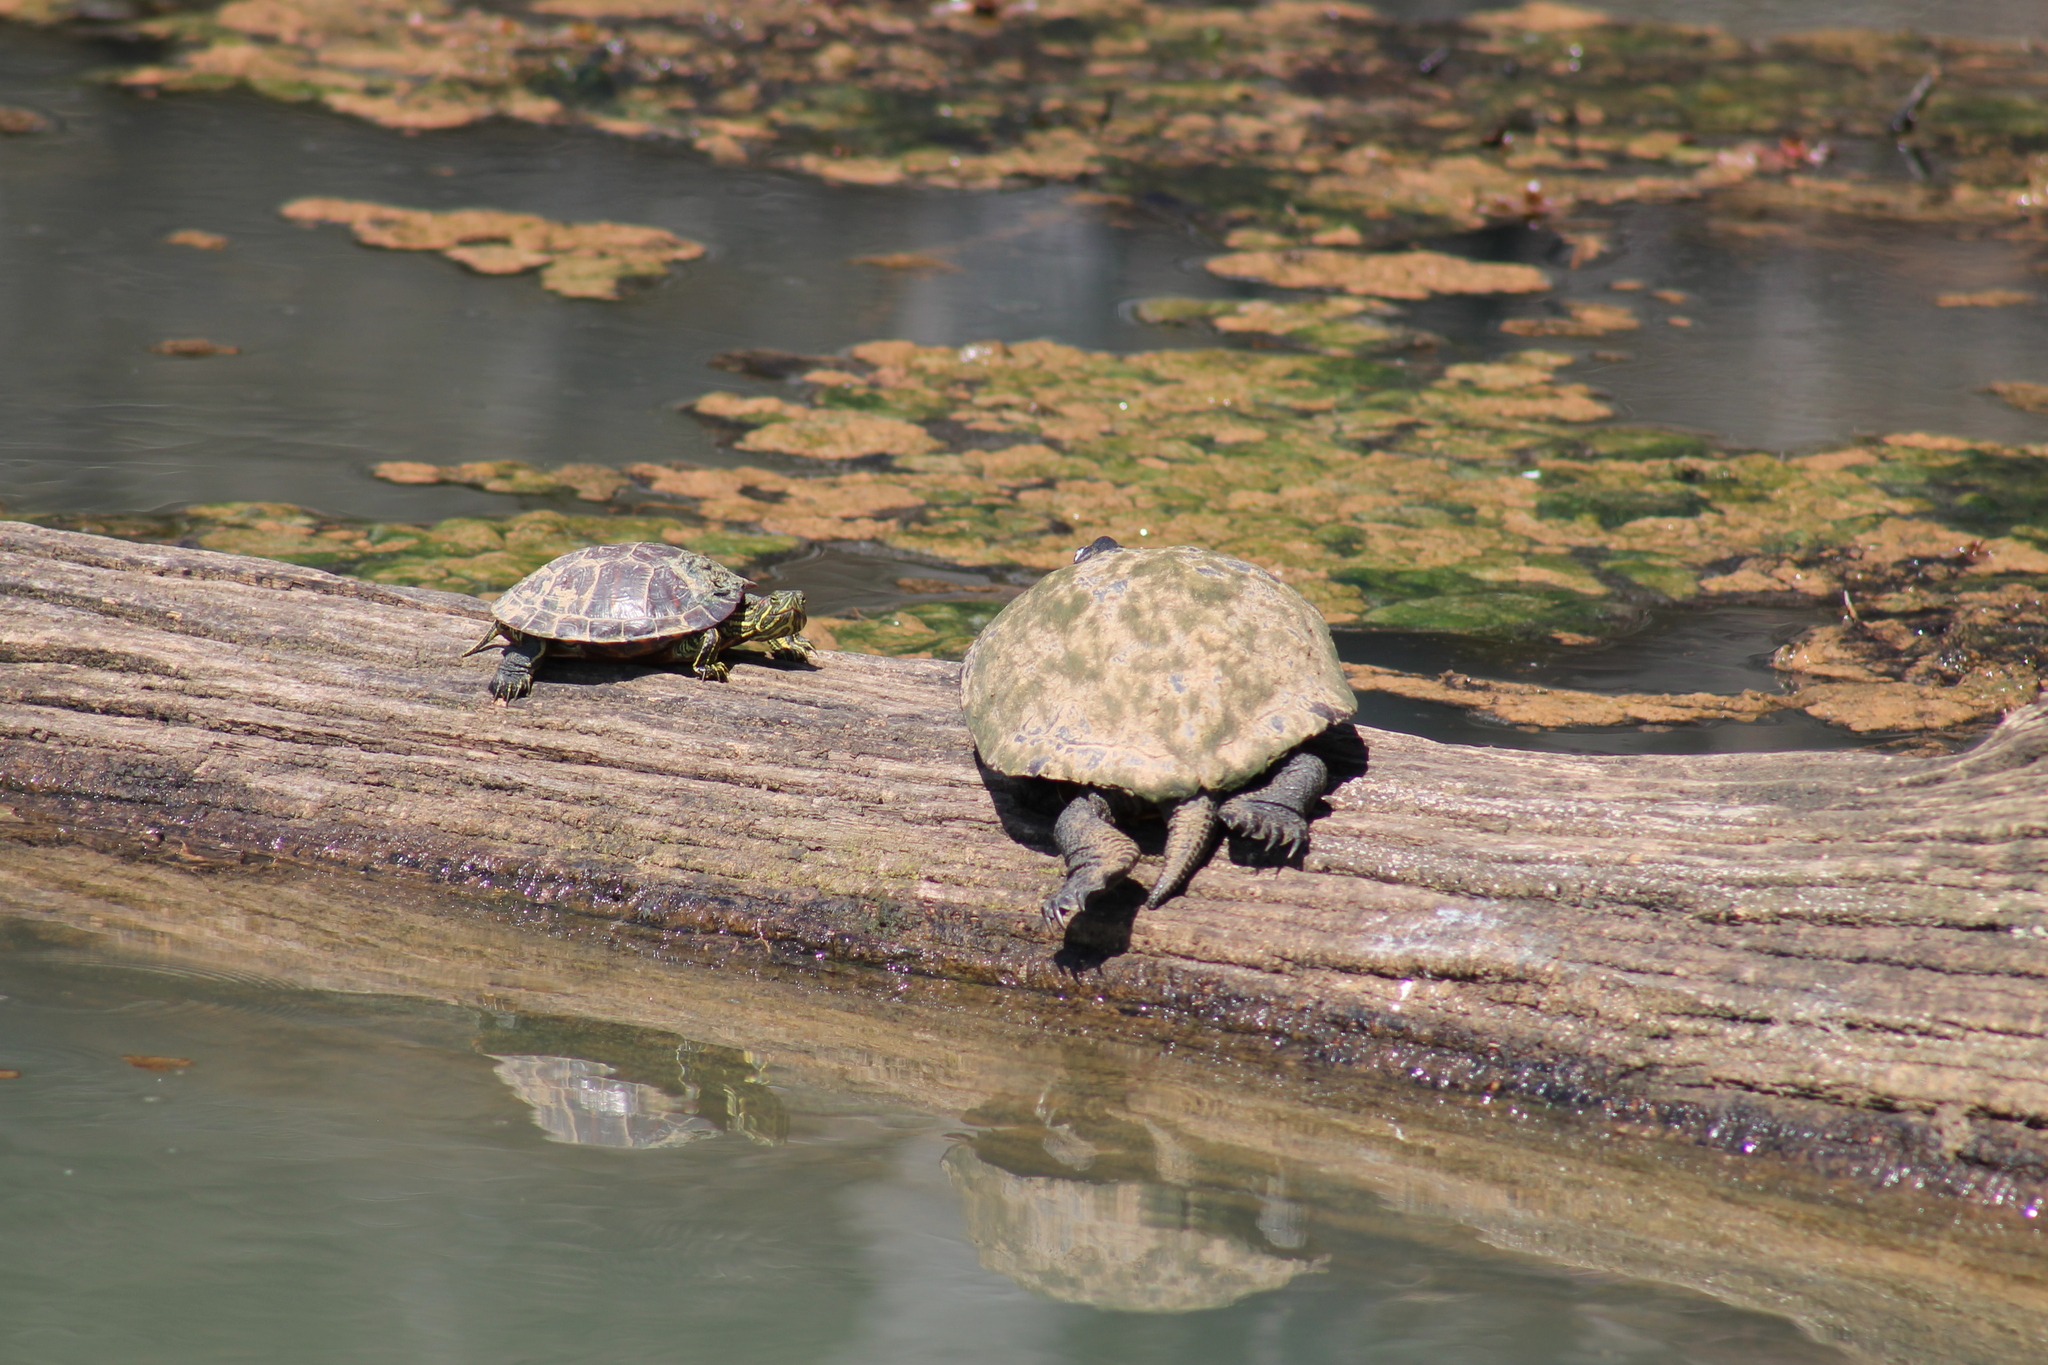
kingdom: Animalia
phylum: Chordata
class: Testudines
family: Emydidae
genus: Trachemys
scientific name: Trachemys scripta
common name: Slider
